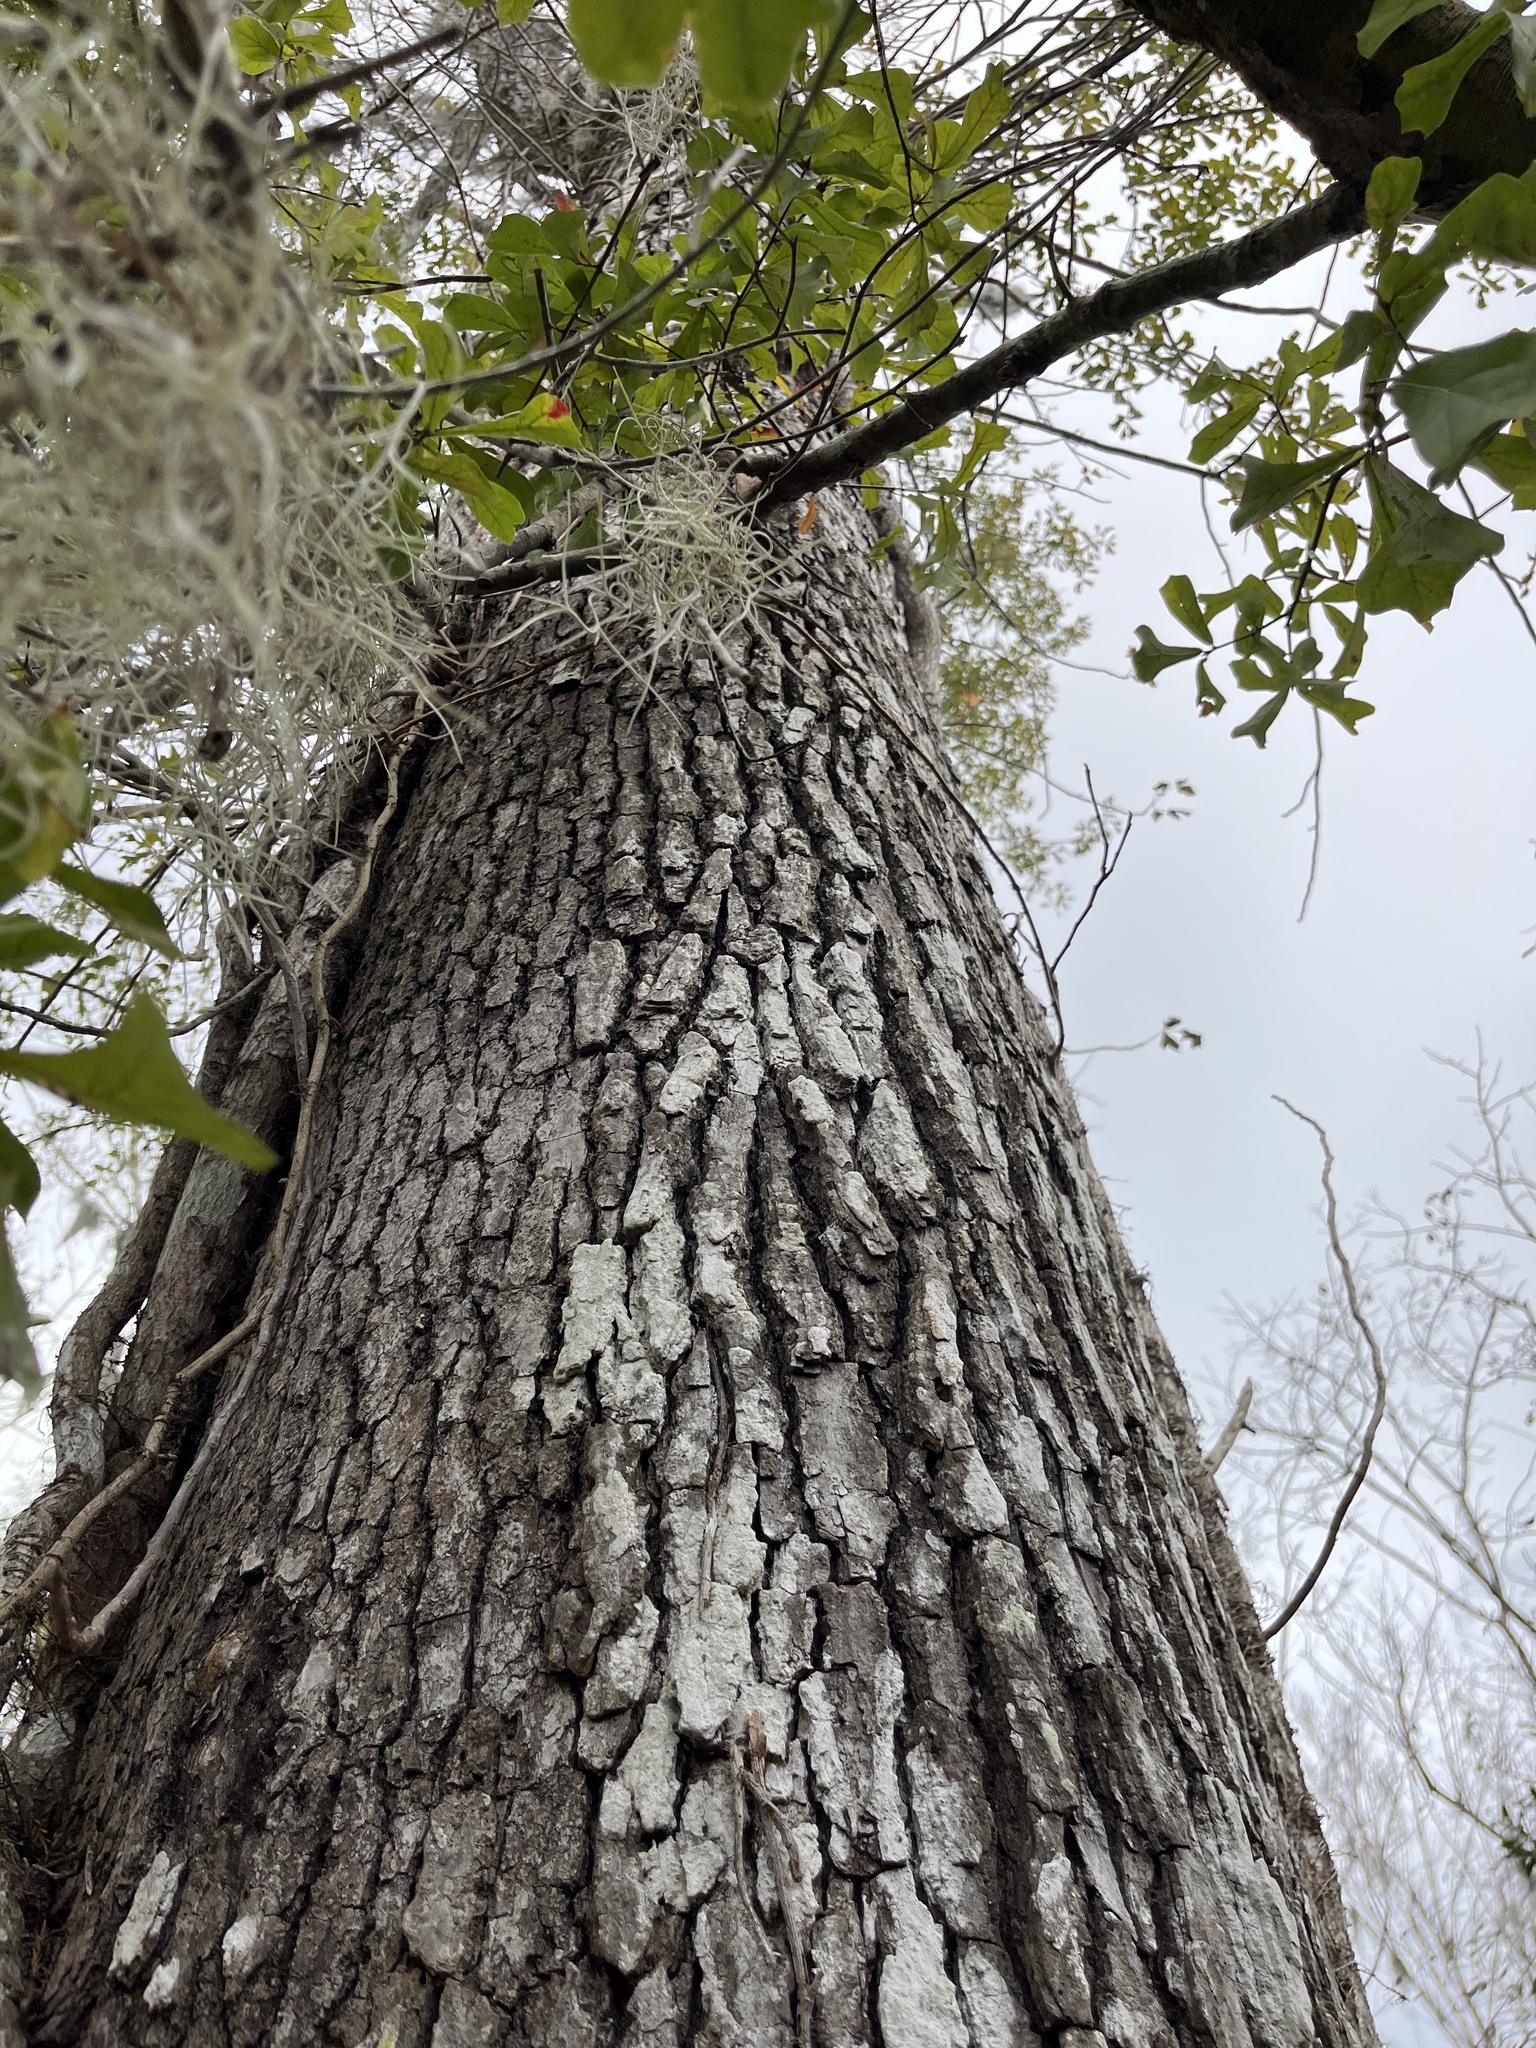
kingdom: Plantae
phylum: Tracheophyta
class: Magnoliopsida
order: Fagales
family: Fagaceae
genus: Quercus
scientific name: Quercus nigra
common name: Water oak
